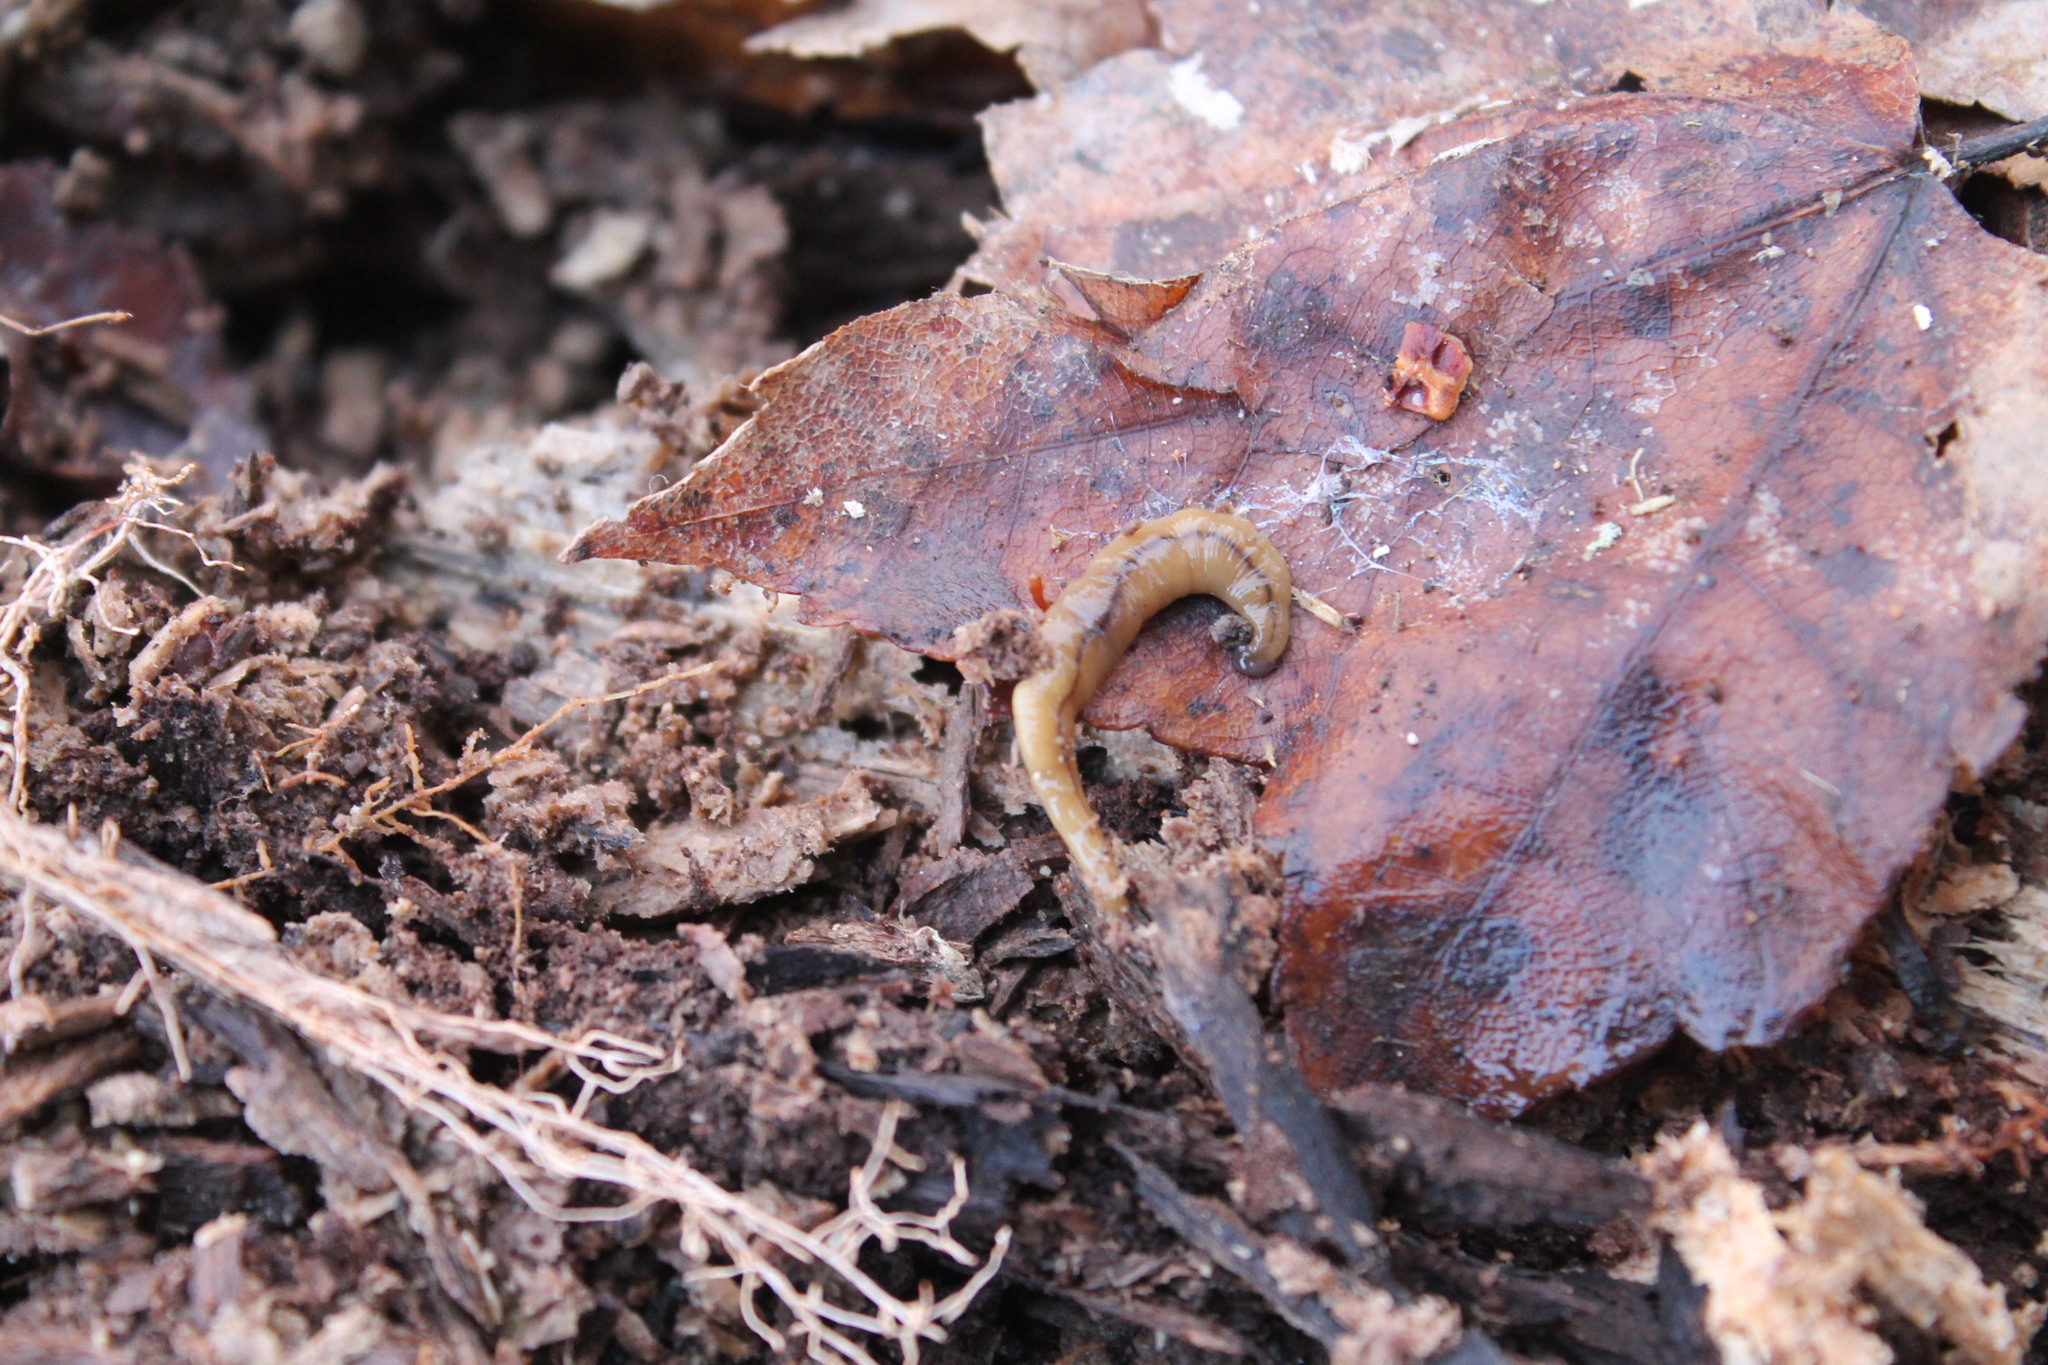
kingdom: Animalia
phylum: Platyhelminthes
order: Tricladida
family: Geoplanidae
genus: Bipalium
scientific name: Bipalium adventitium
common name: Land planarian
